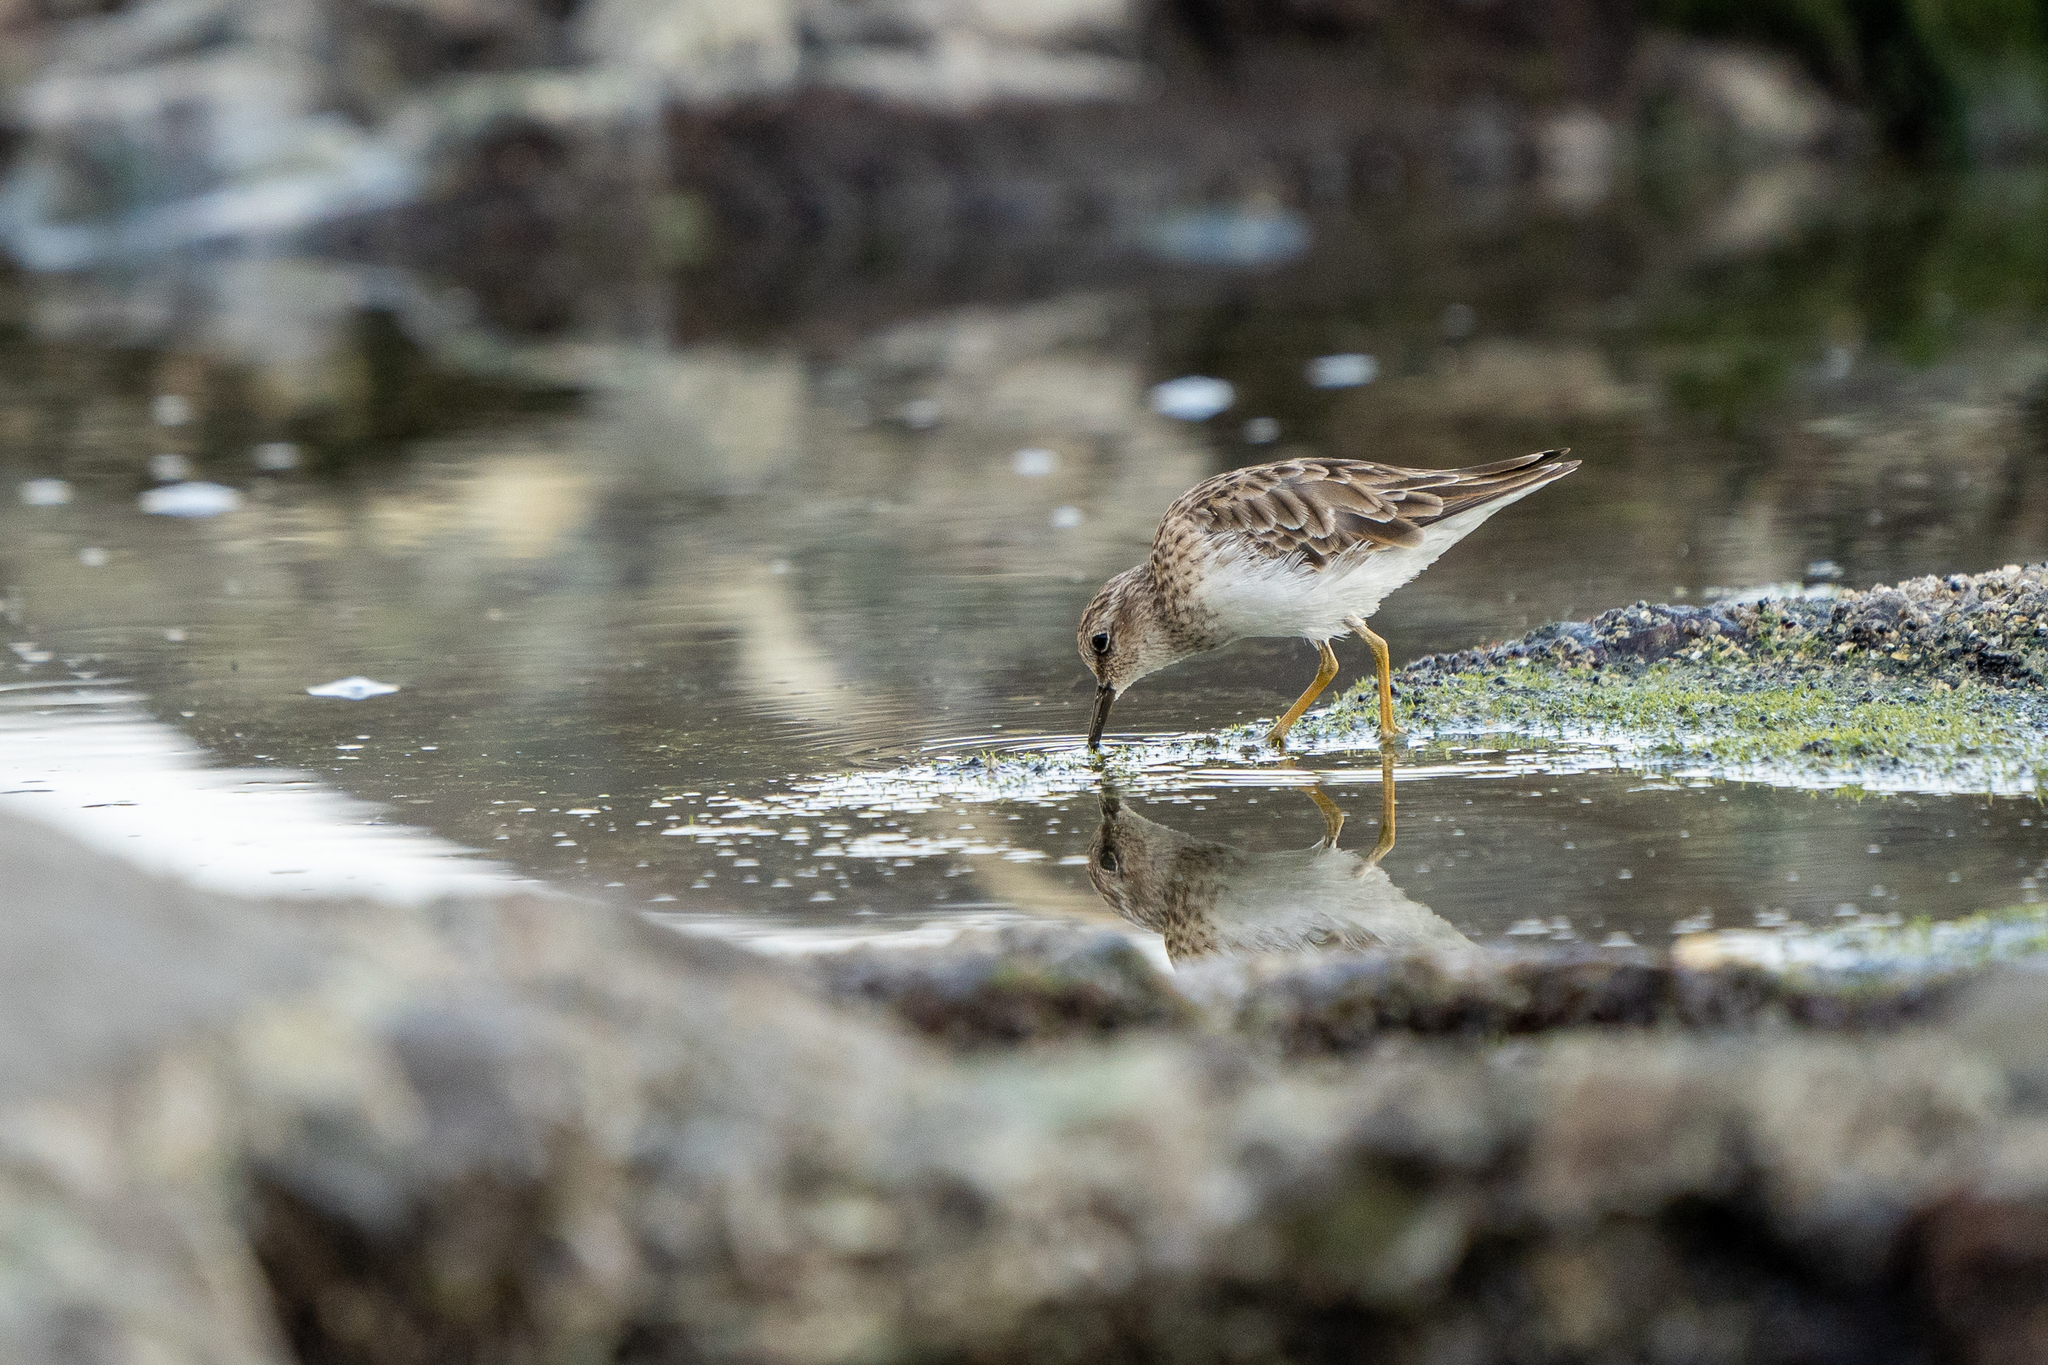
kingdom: Animalia
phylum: Chordata
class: Aves
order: Charadriiformes
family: Scolopacidae
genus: Calidris
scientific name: Calidris minutilla
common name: Least sandpiper
